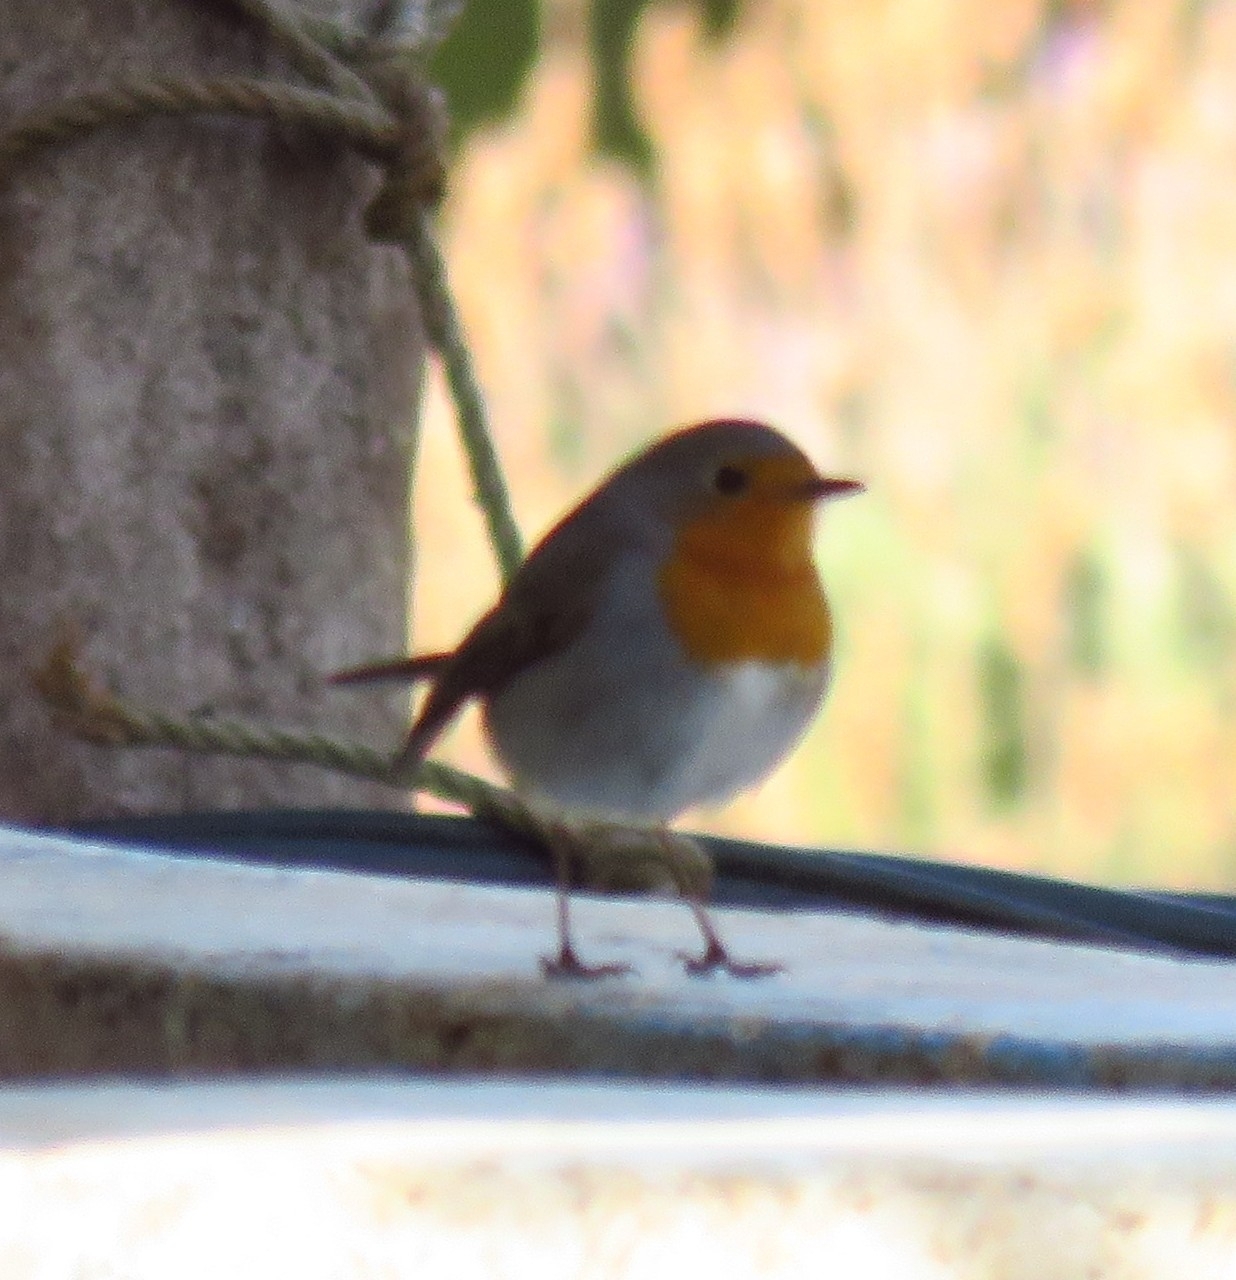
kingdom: Animalia
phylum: Chordata
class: Aves
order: Passeriformes
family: Muscicapidae
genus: Erithacus
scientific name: Erithacus rubecula
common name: European robin
